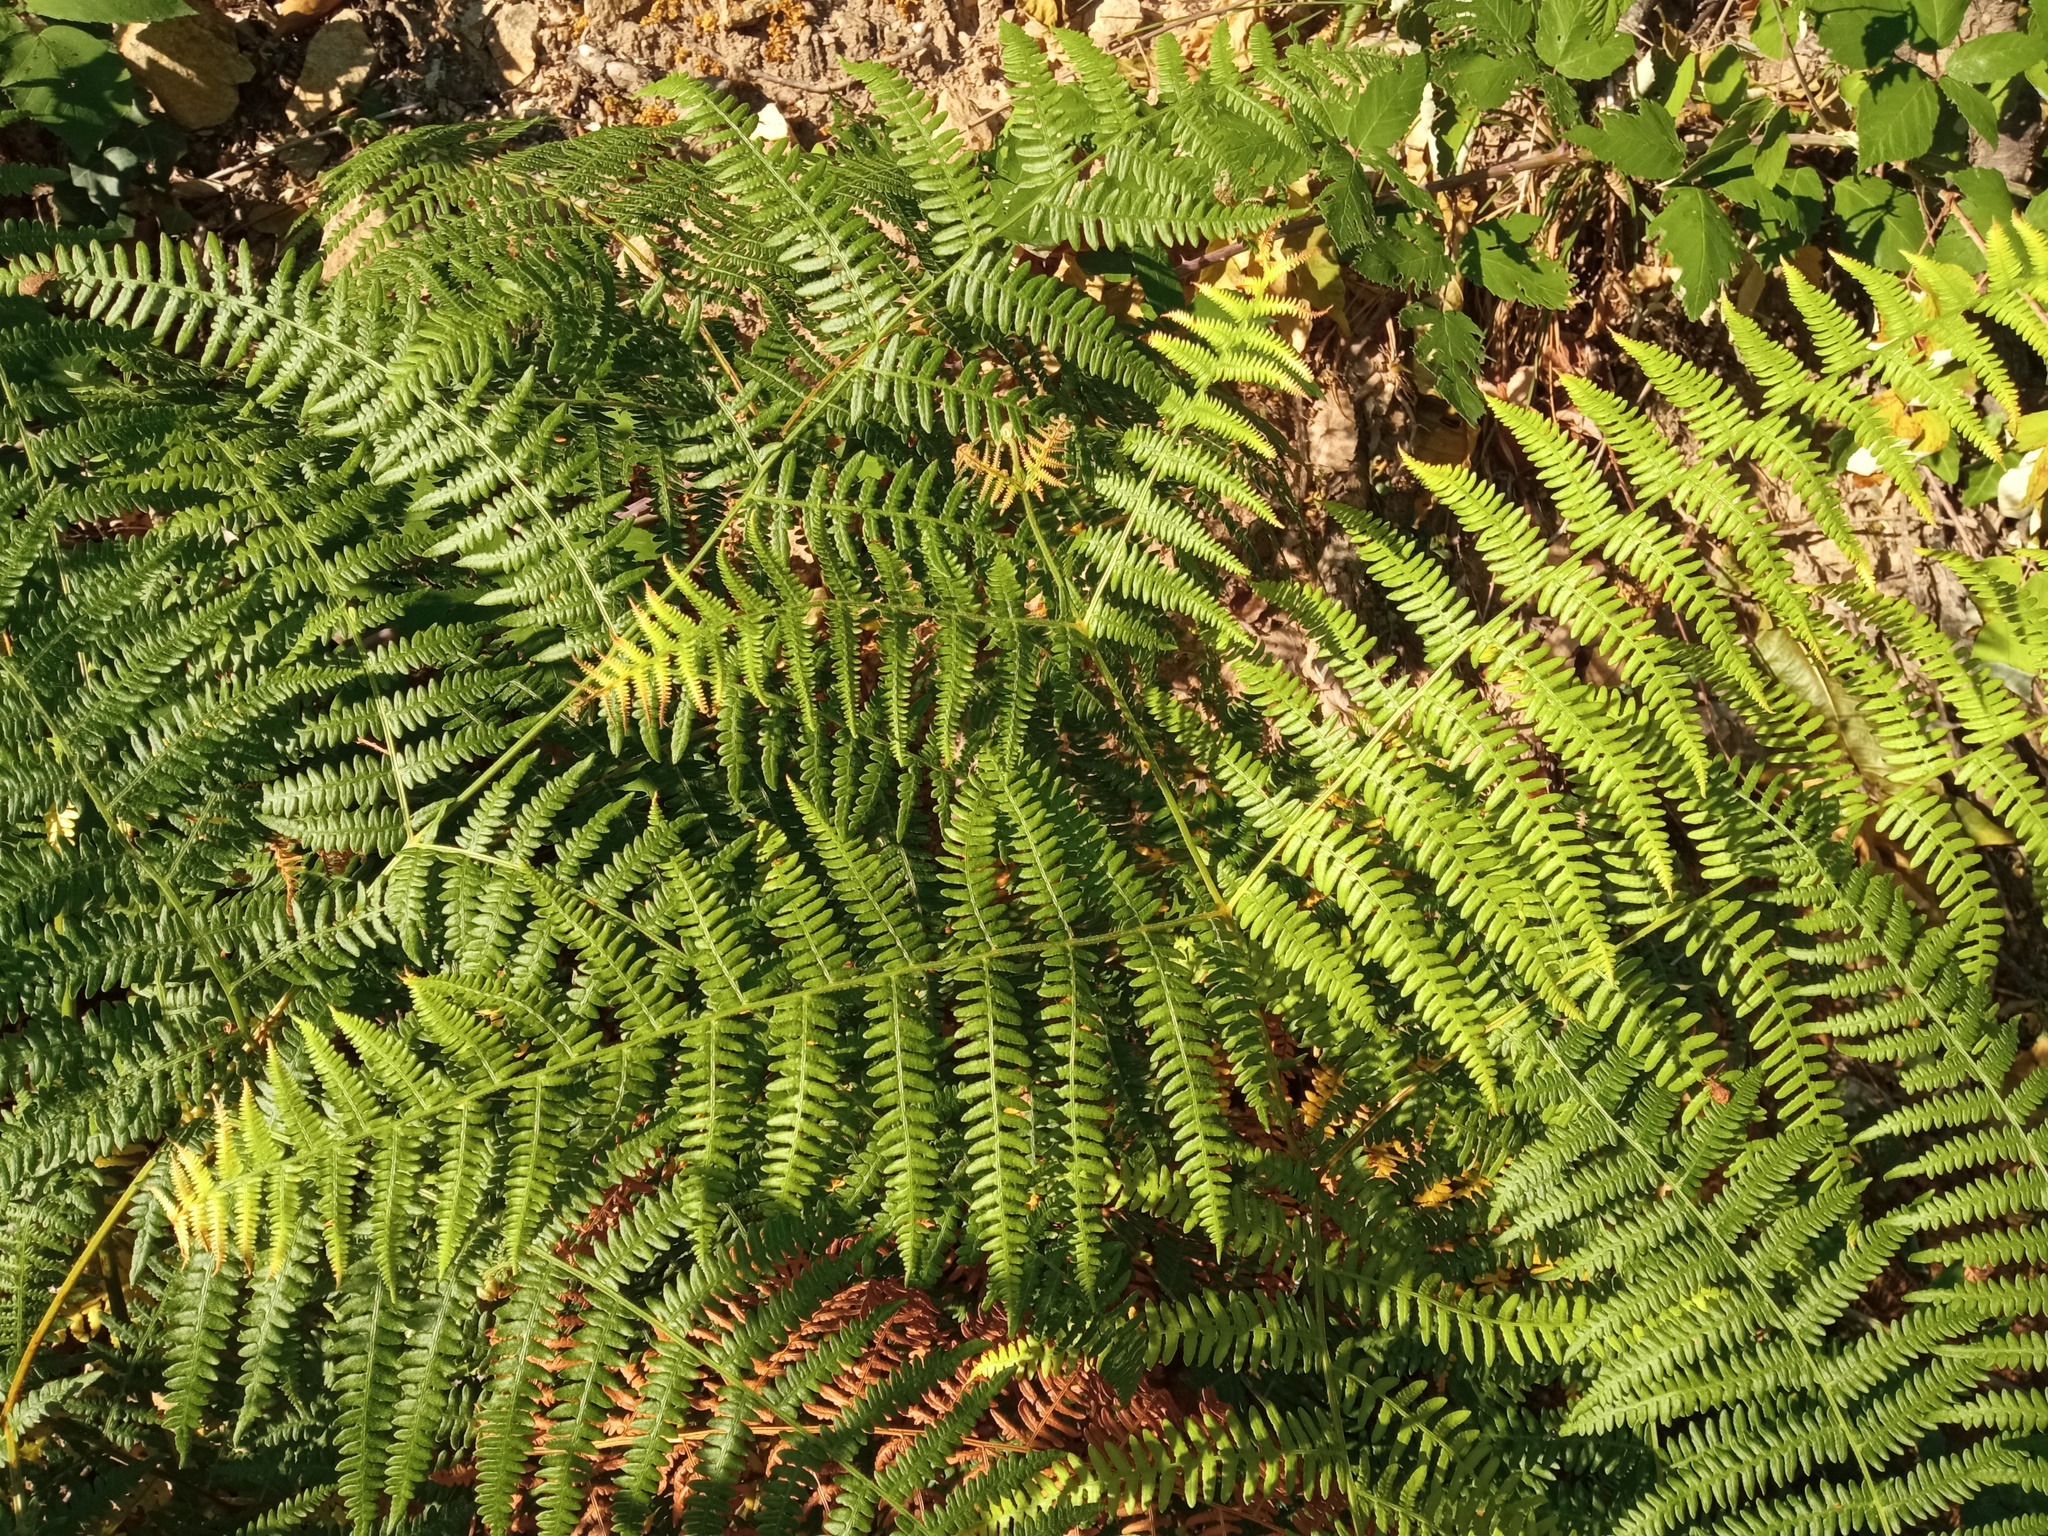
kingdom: Plantae
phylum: Tracheophyta
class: Polypodiopsida
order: Polypodiales
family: Dennstaedtiaceae
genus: Pteridium
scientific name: Pteridium aquilinum
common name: Bracken
